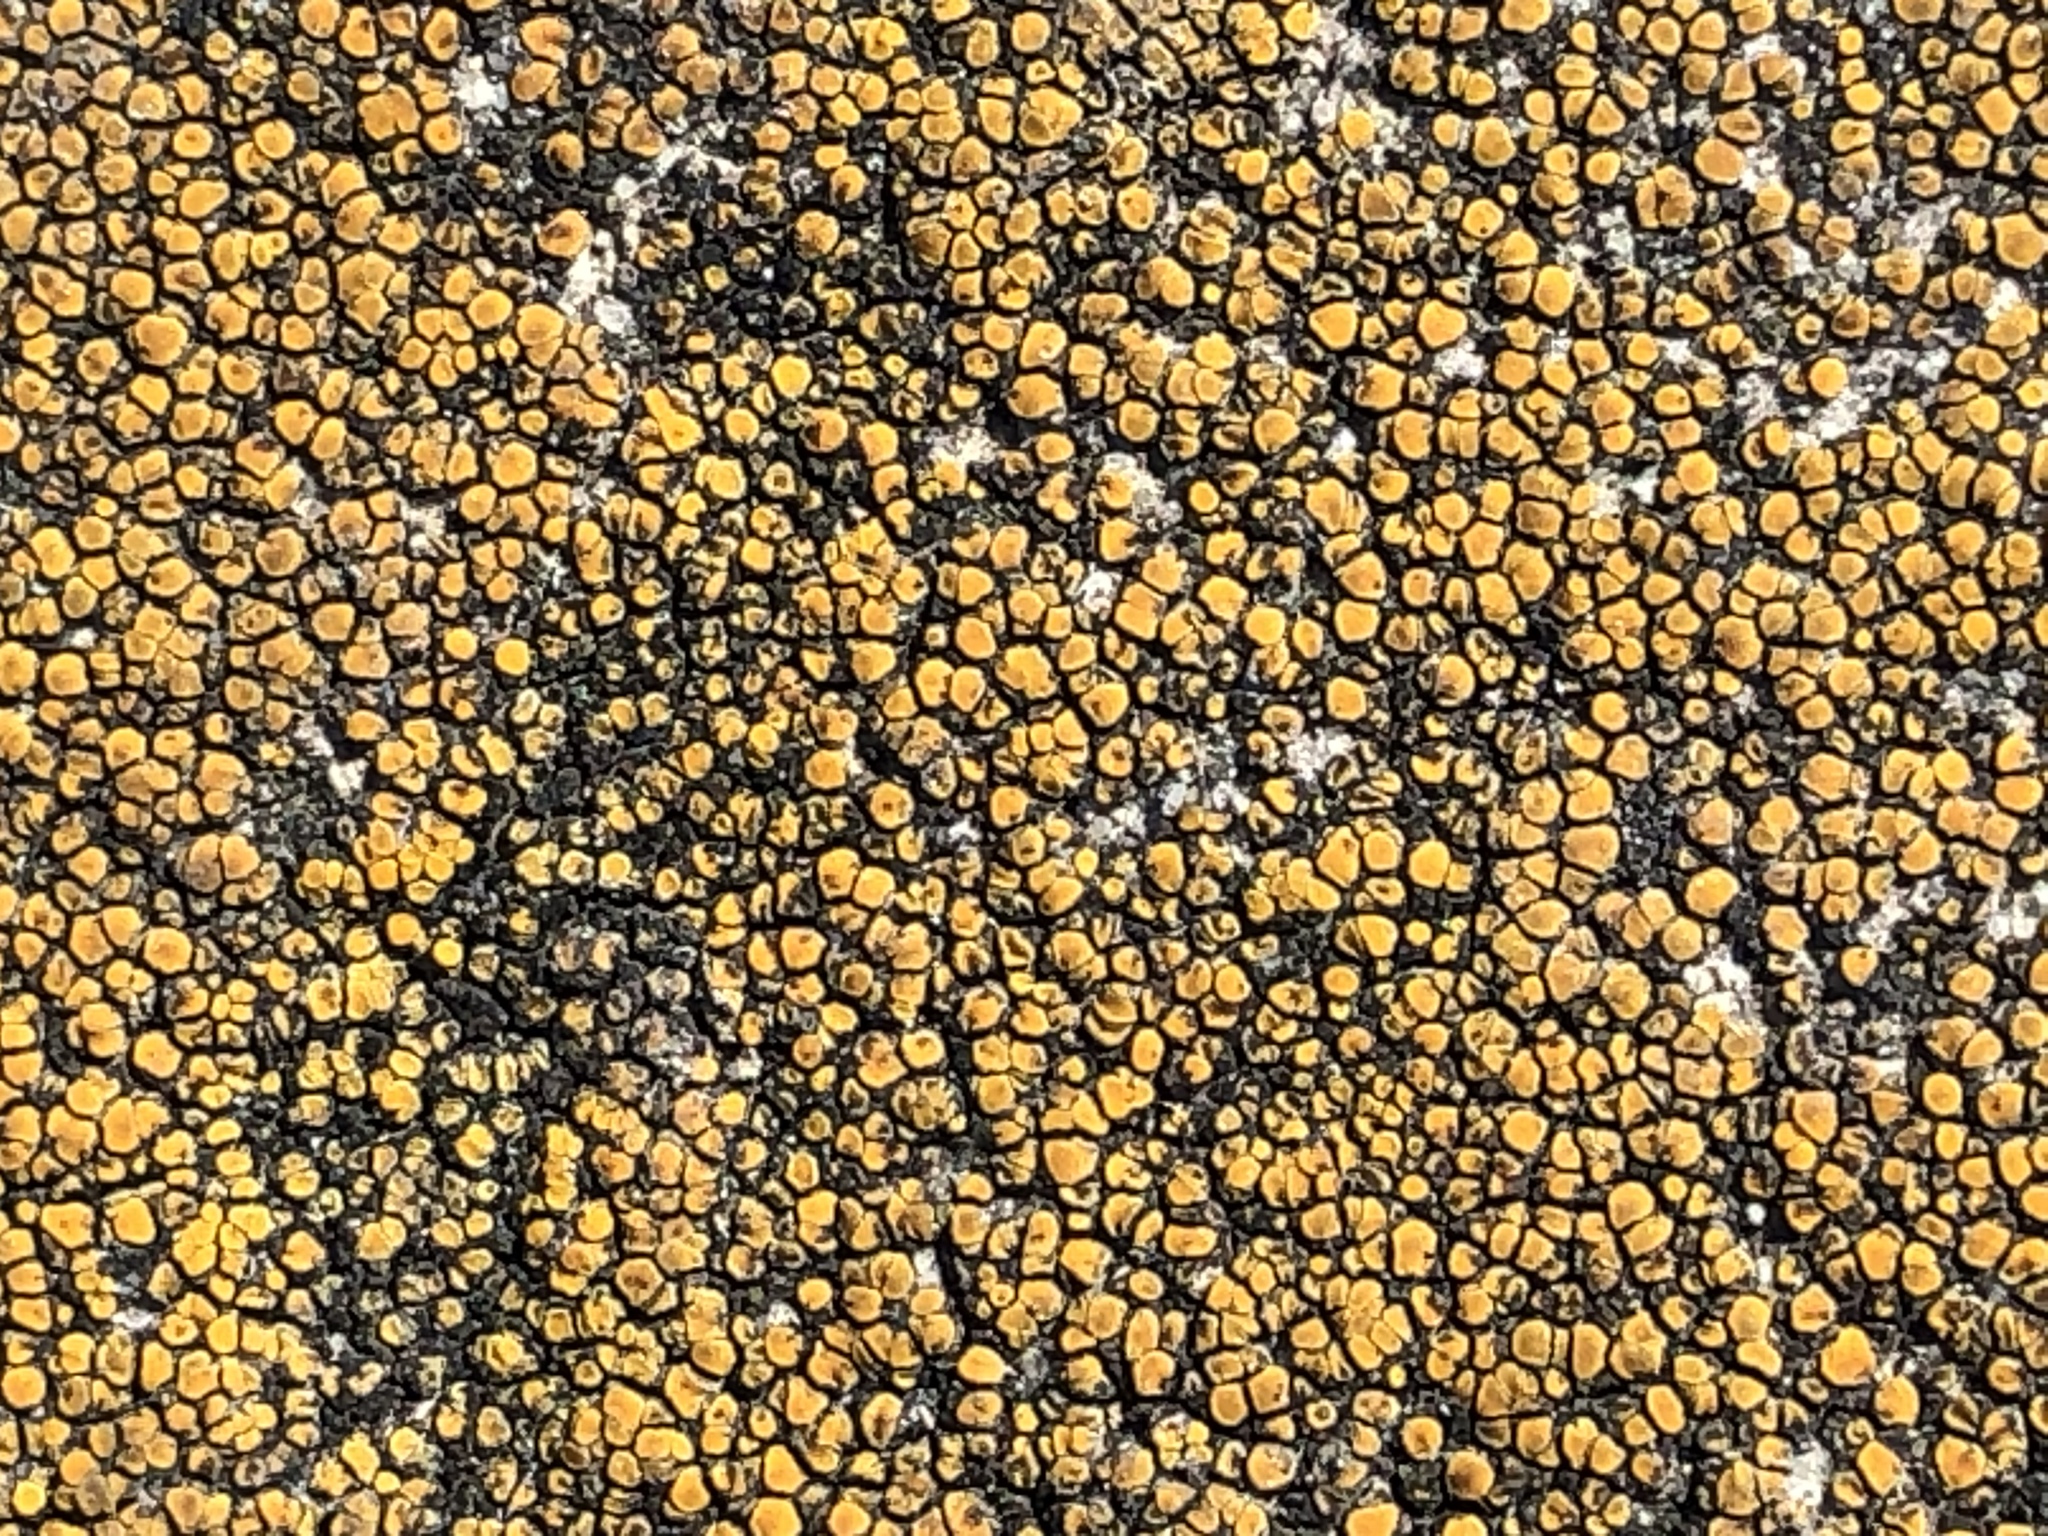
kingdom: Fungi
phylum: Ascomycota
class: Lecanoromycetes
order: Teloschistales
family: Teloschistaceae
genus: Xanthocarpia
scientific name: Xanthocarpia feracissima
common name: Sidewalk firedot
